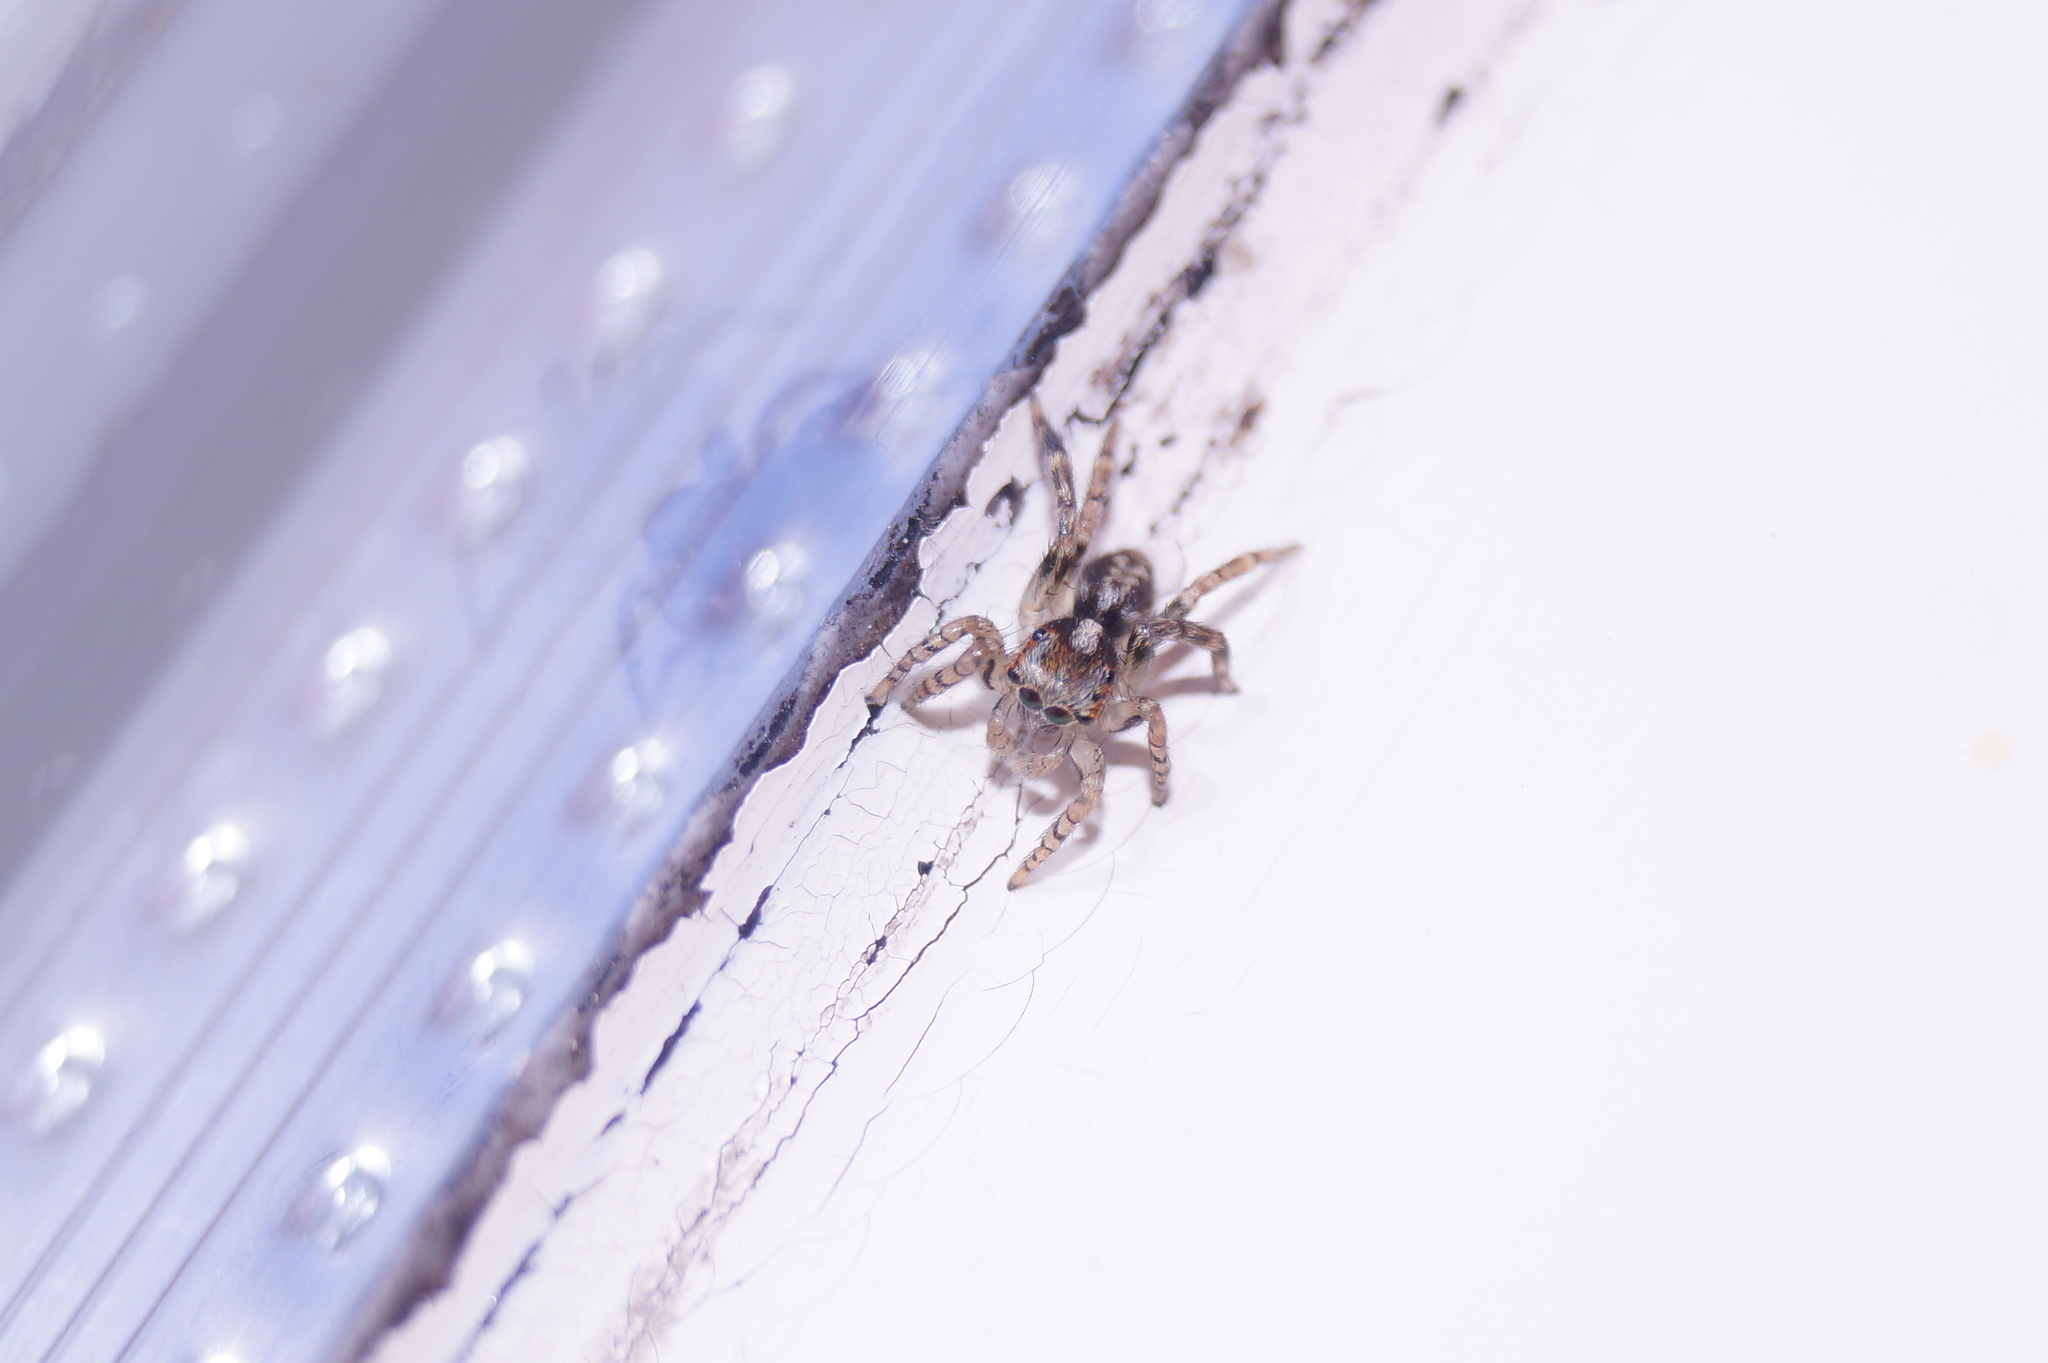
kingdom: Animalia
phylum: Arthropoda
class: Arachnida
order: Araneae
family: Salticidae
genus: Saitis
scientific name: Saitis barbipes
